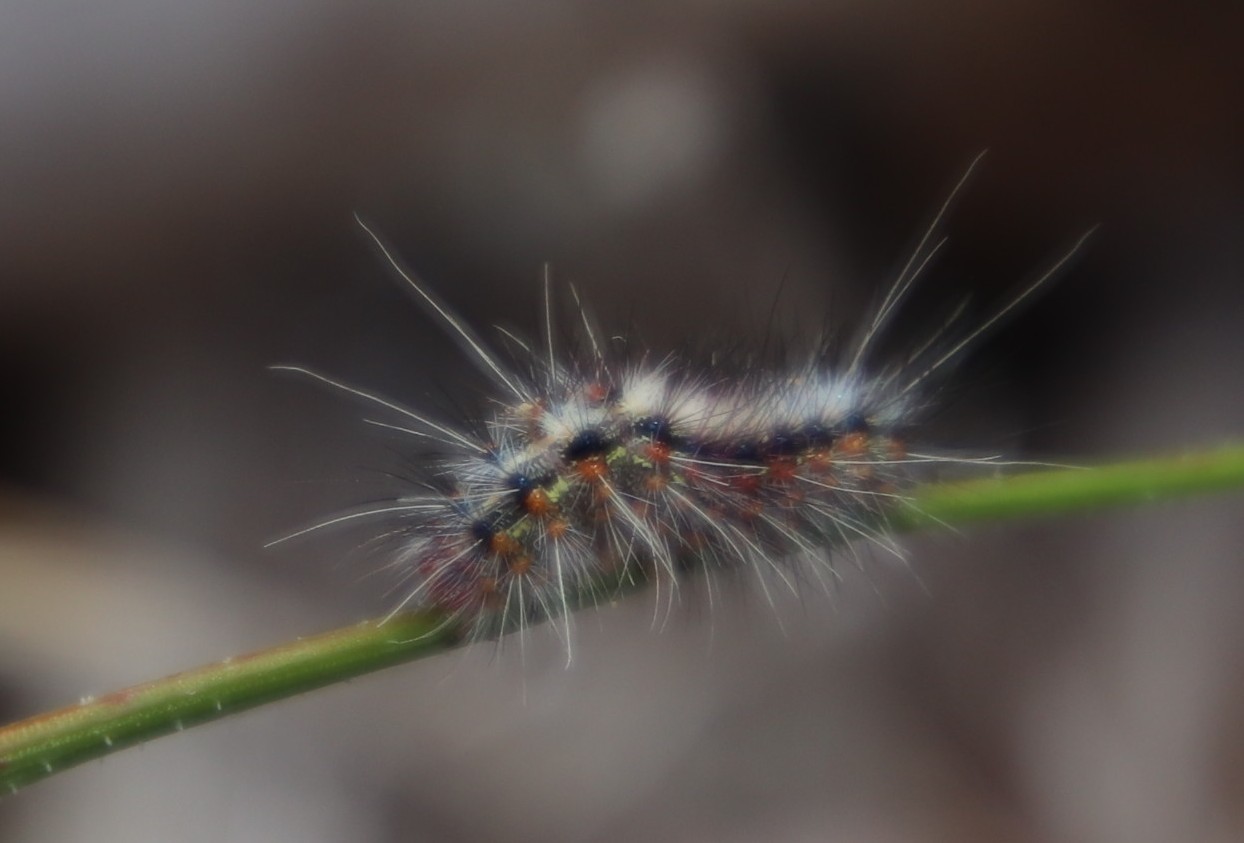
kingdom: Animalia
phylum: Arthropoda
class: Insecta
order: Lepidoptera
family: Erebidae
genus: Paralacydes
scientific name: Paralacydes vocula
